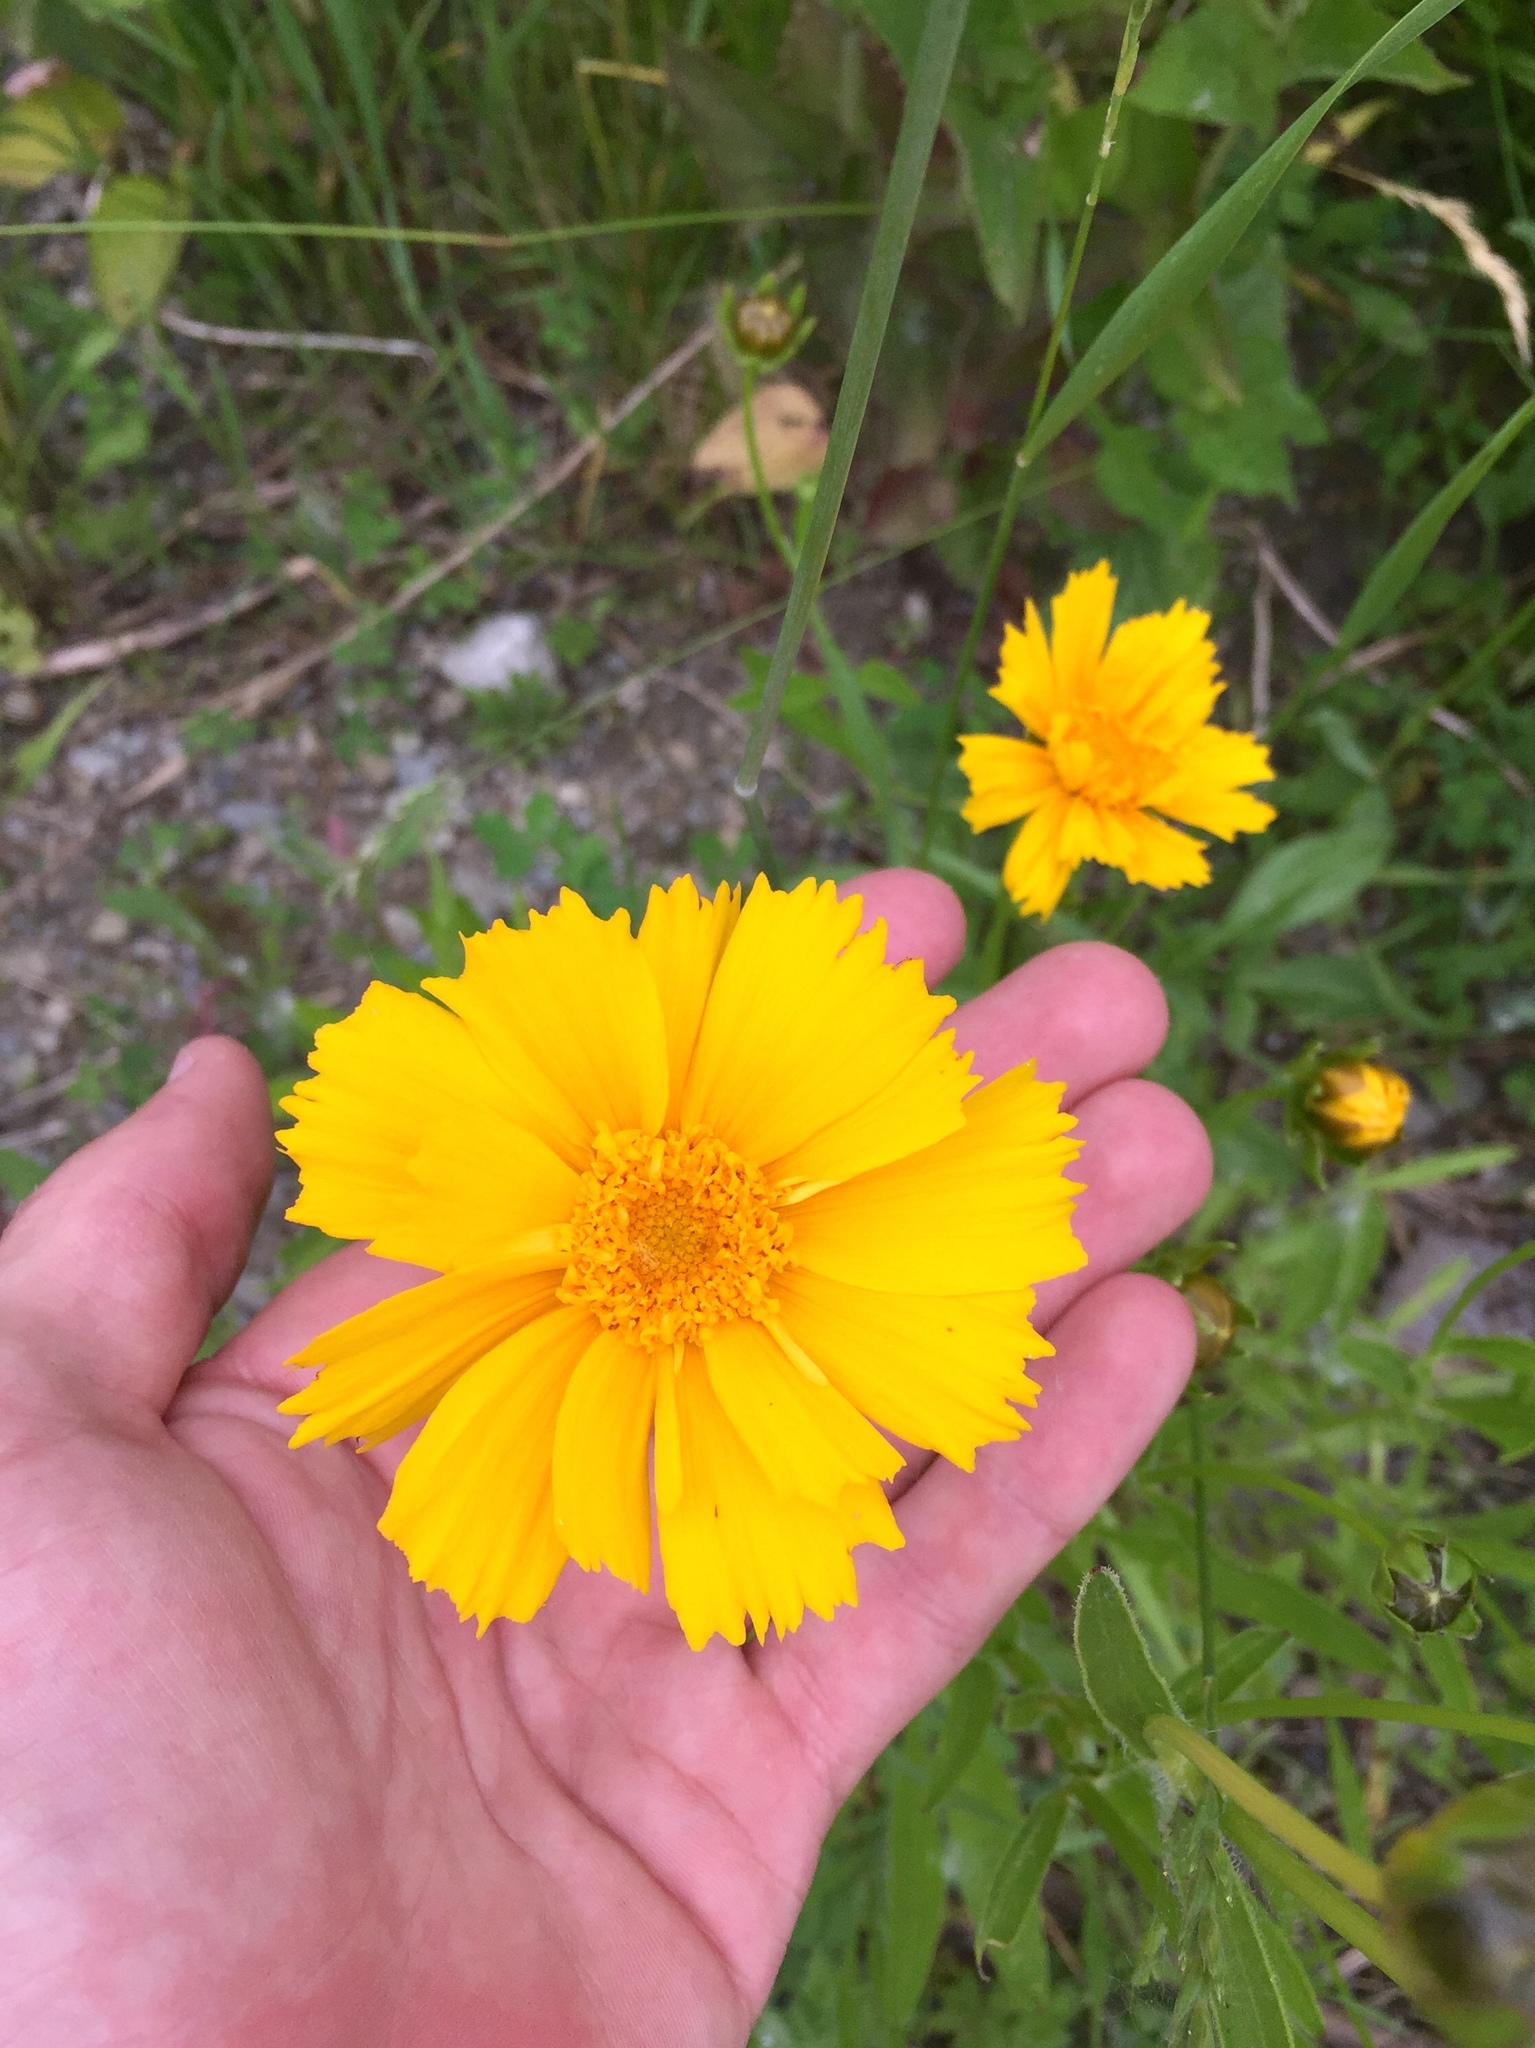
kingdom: Plantae
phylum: Tracheophyta
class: Magnoliopsida
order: Asterales
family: Asteraceae
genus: Coreopsis
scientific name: Coreopsis lanceolata
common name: Garden coreopsis
